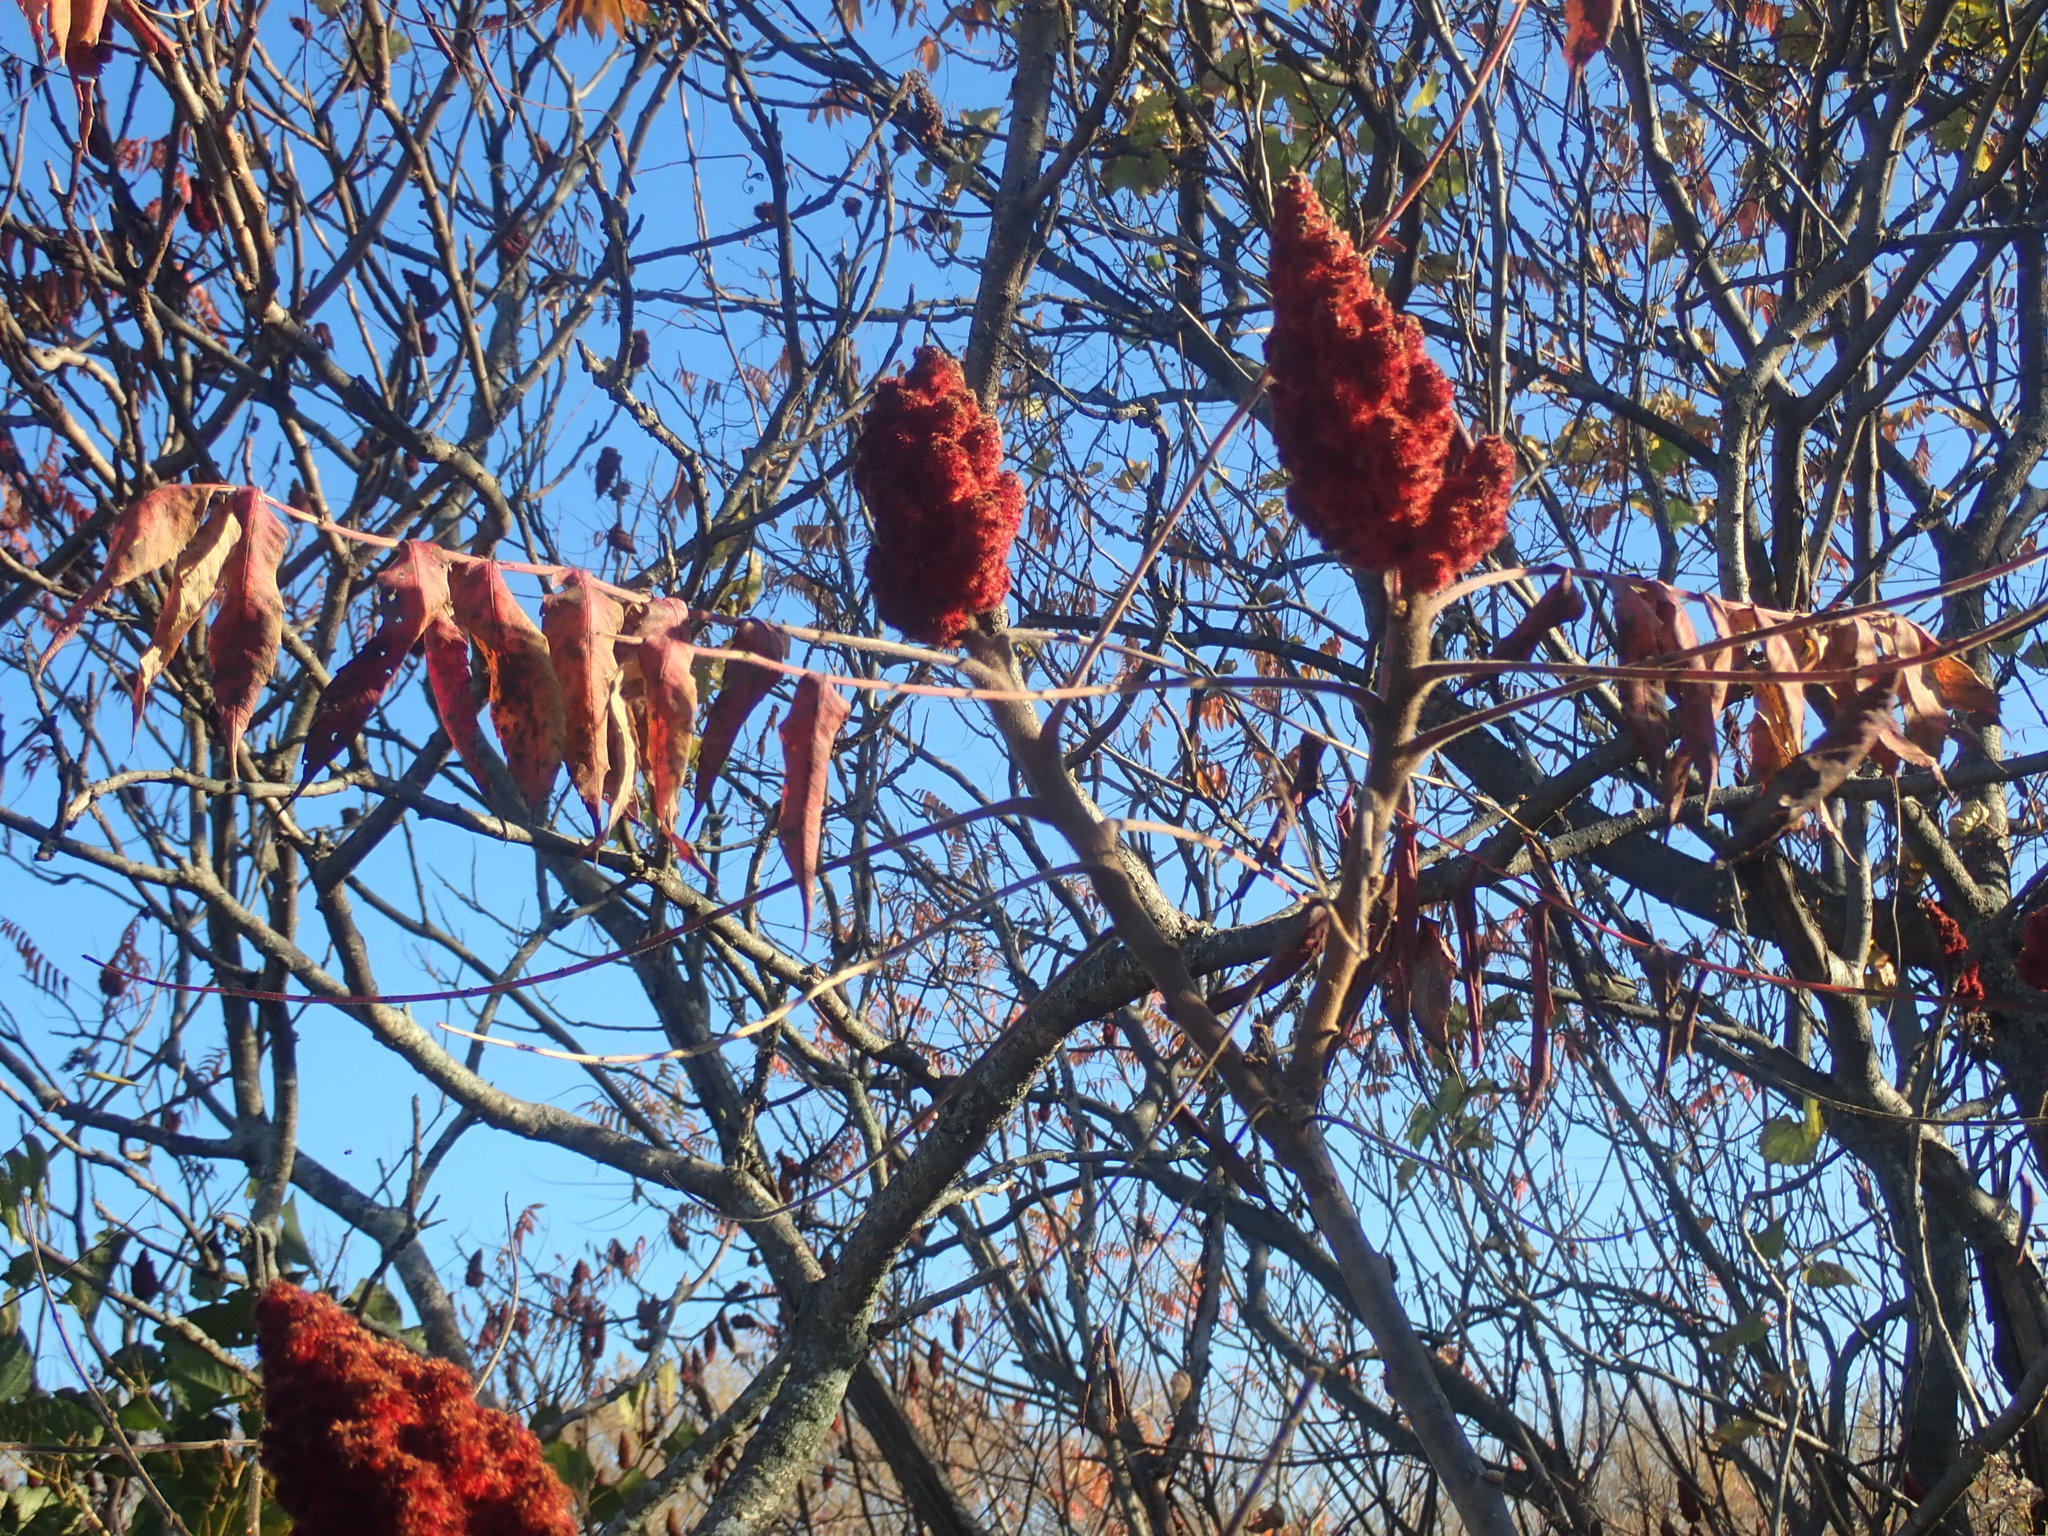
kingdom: Plantae
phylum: Tracheophyta
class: Magnoliopsida
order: Sapindales
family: Anacardiaceae
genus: Rhus
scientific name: Rhus typhina
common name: Staghorn sumac
